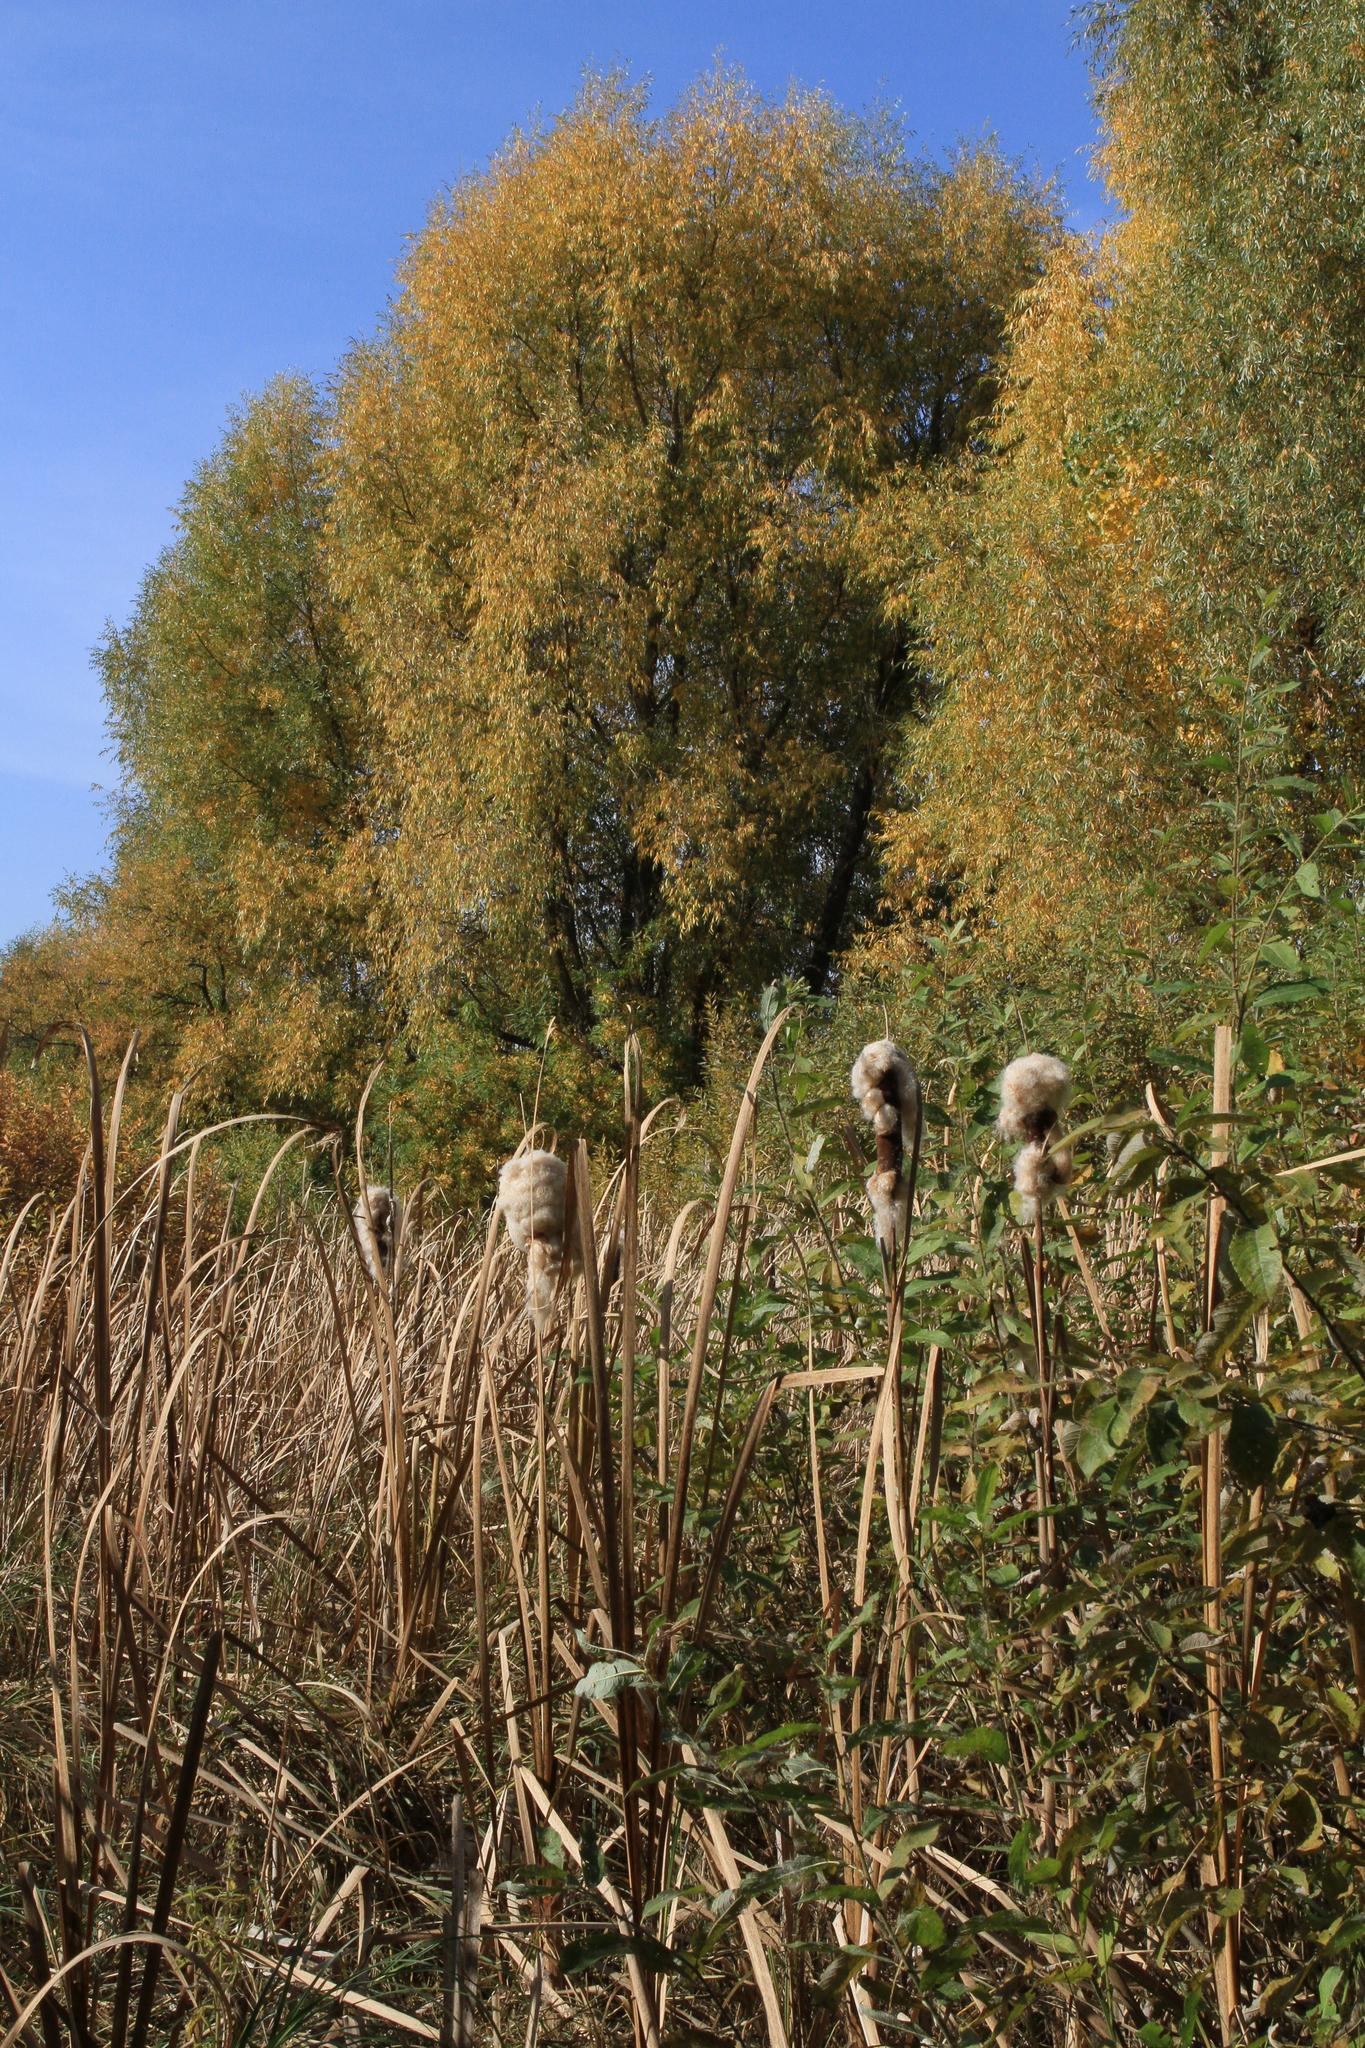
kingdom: Plantae
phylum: Tracheophyta
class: Liliopsida
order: Poales
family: Typhaceae
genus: Typha
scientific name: Typha latifolia
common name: Broadleaf cattail
